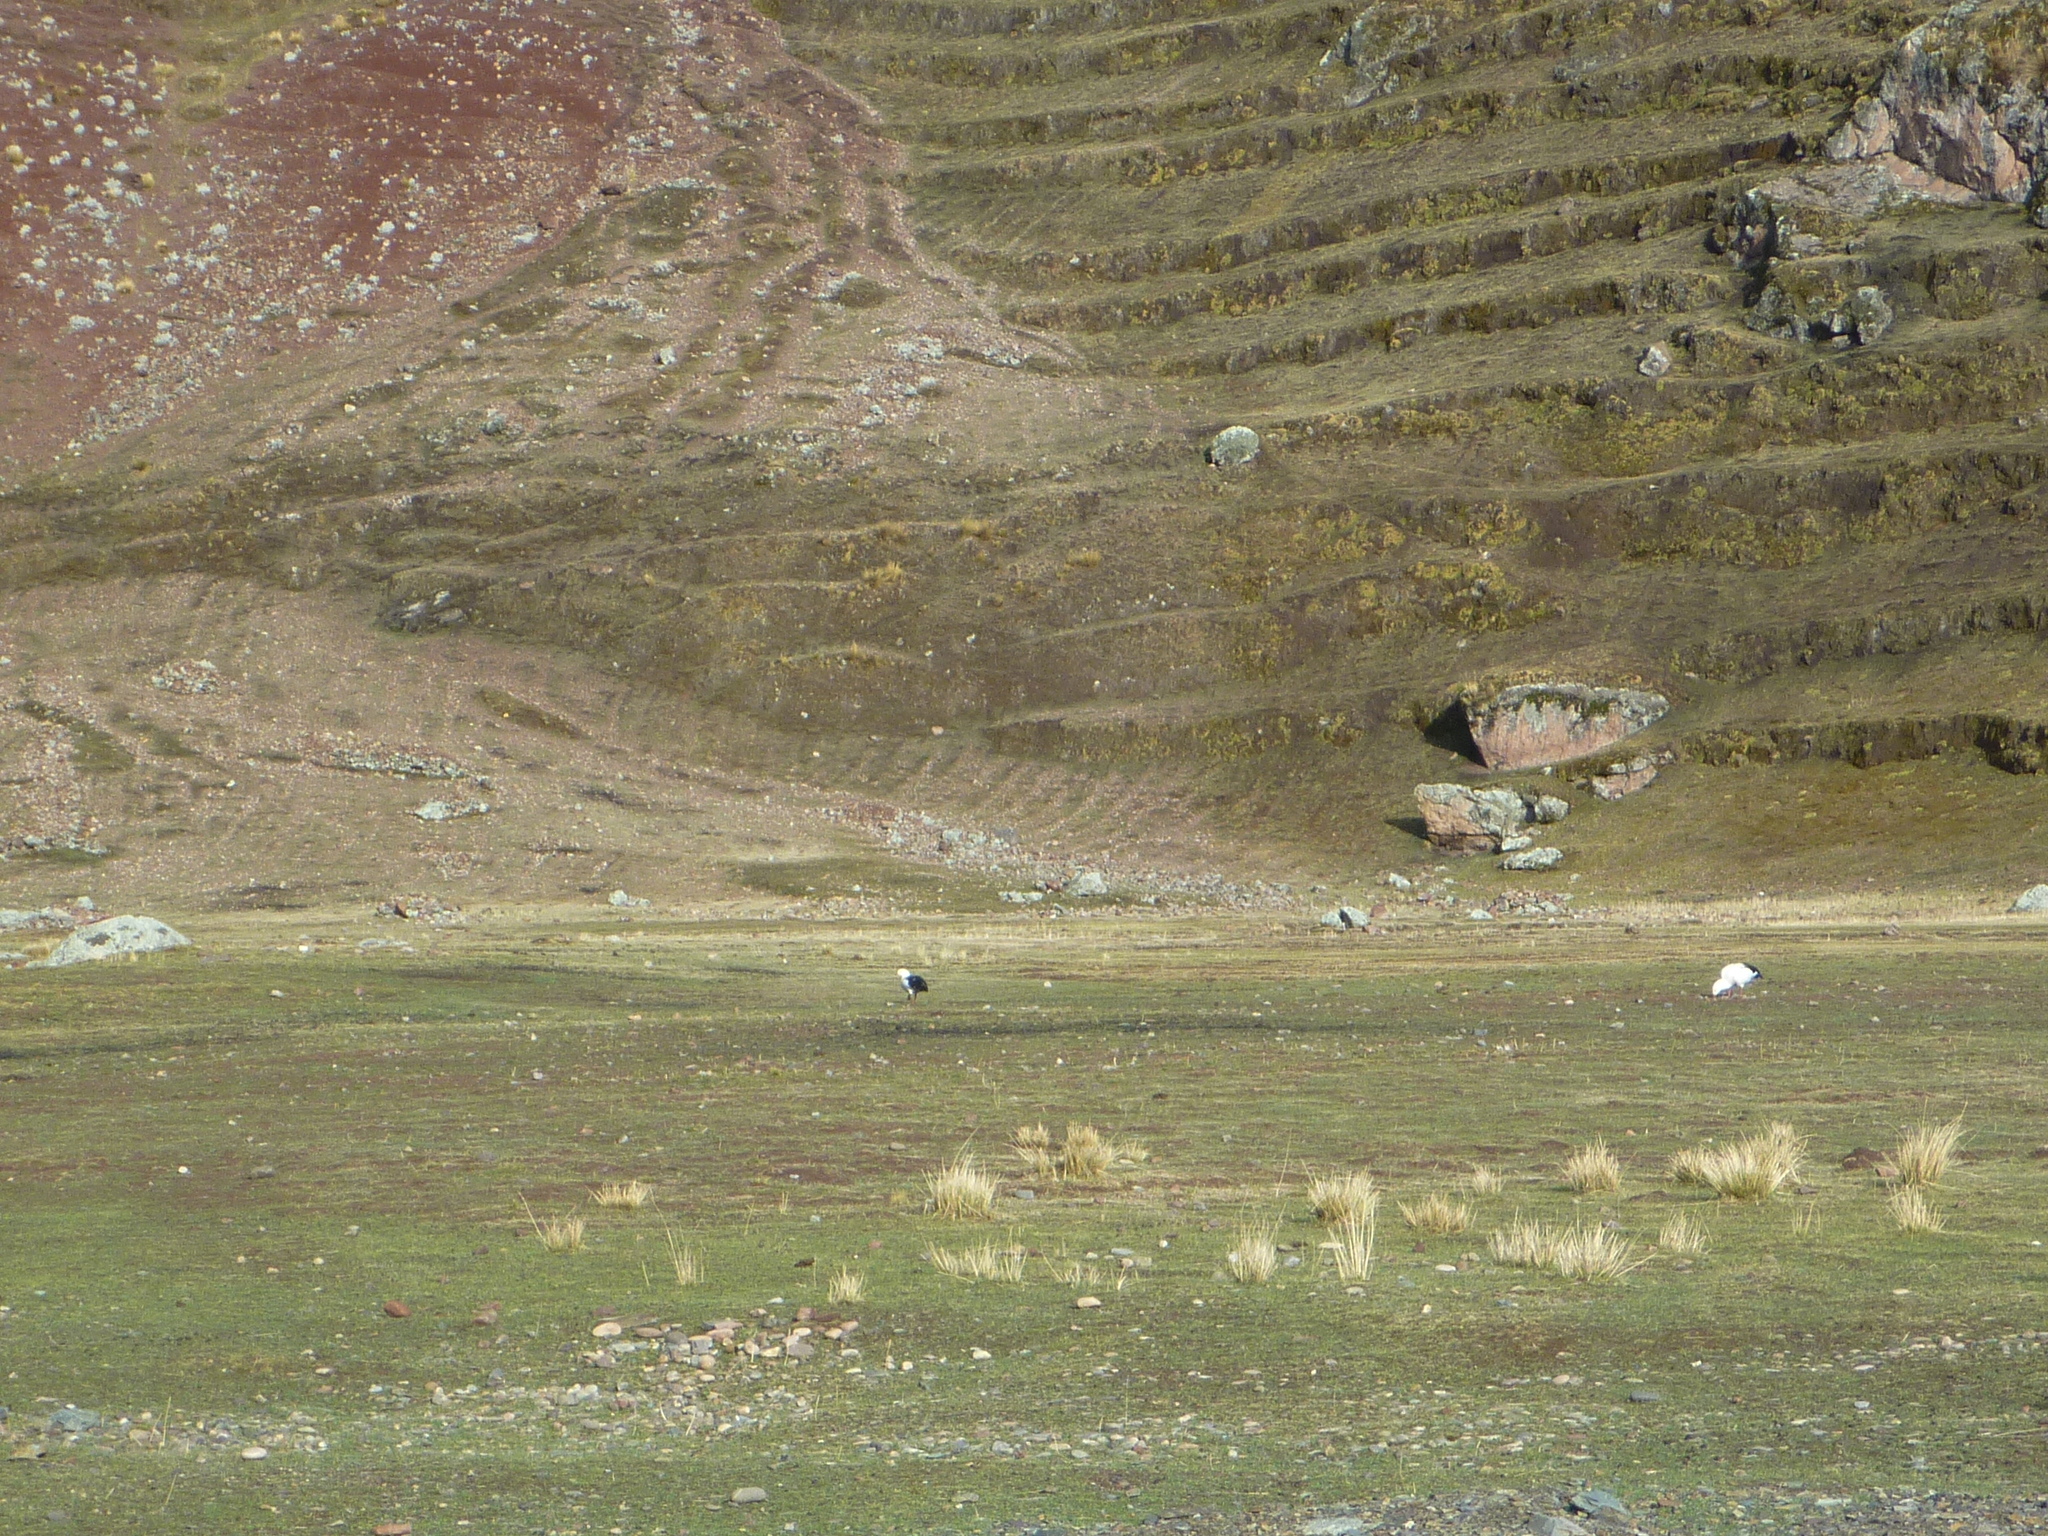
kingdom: Animalia
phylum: Chordata
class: Aves
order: Anseriformes
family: Anatidae
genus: Chloephaga
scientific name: Chloephaga melanoptera
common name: Andean goose
